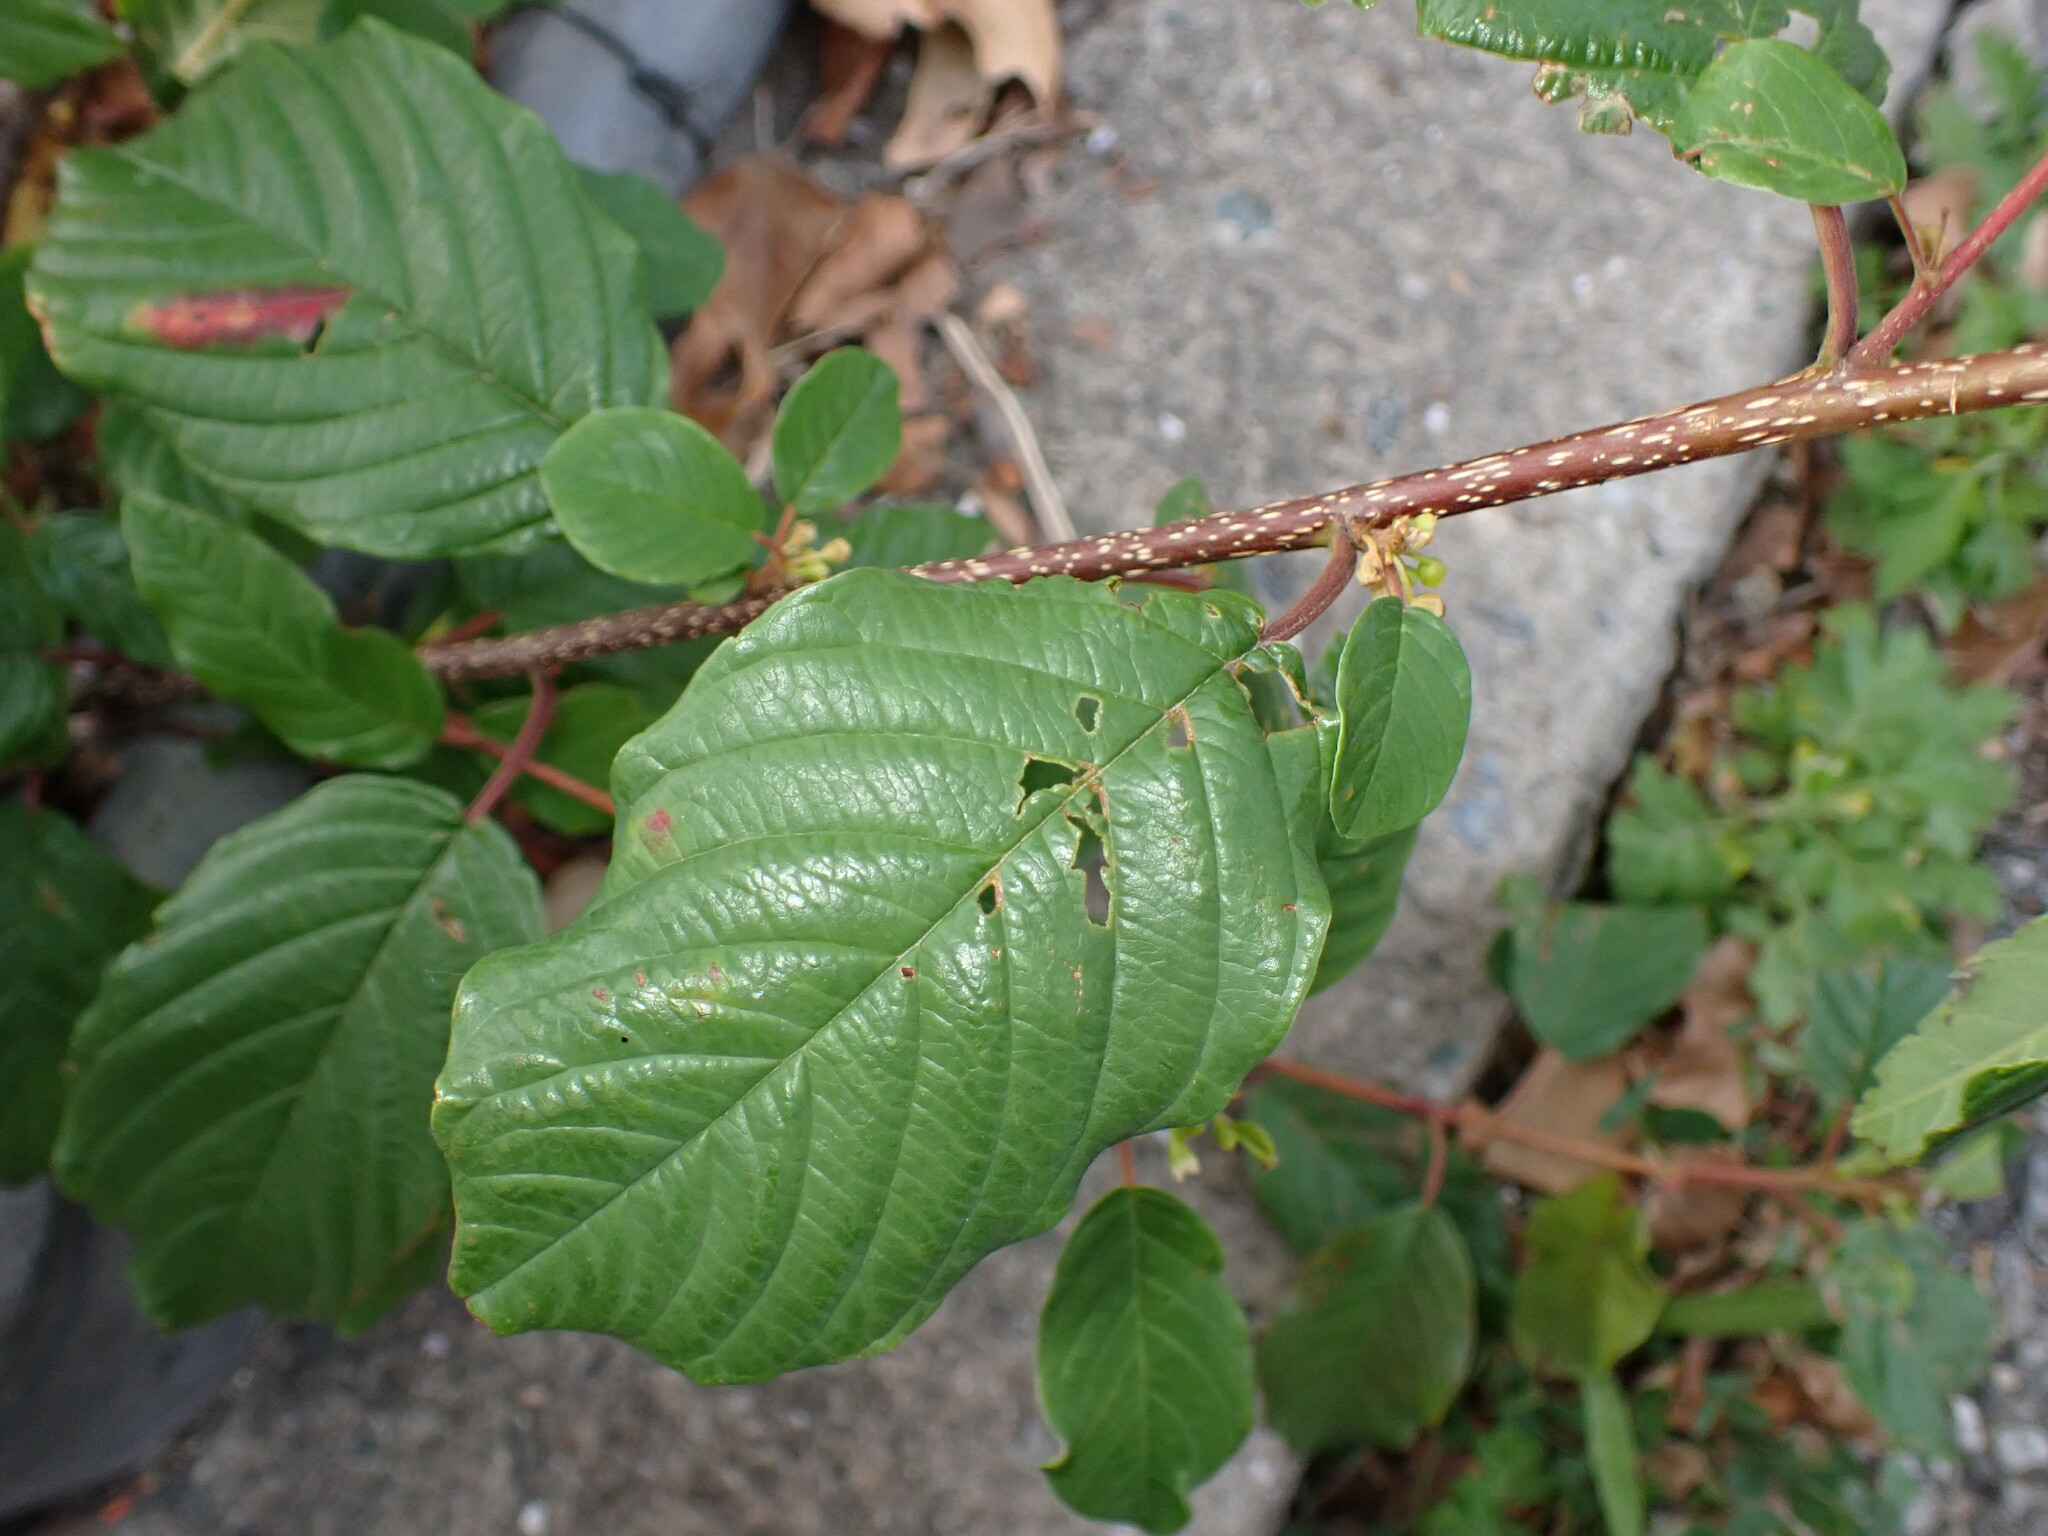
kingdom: Plantae
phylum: Tracheophyta
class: Magnoliopsida
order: Rosales
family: Rhamnaceae
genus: Frangula
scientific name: Frangula alnus
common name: Alder buckthorn
